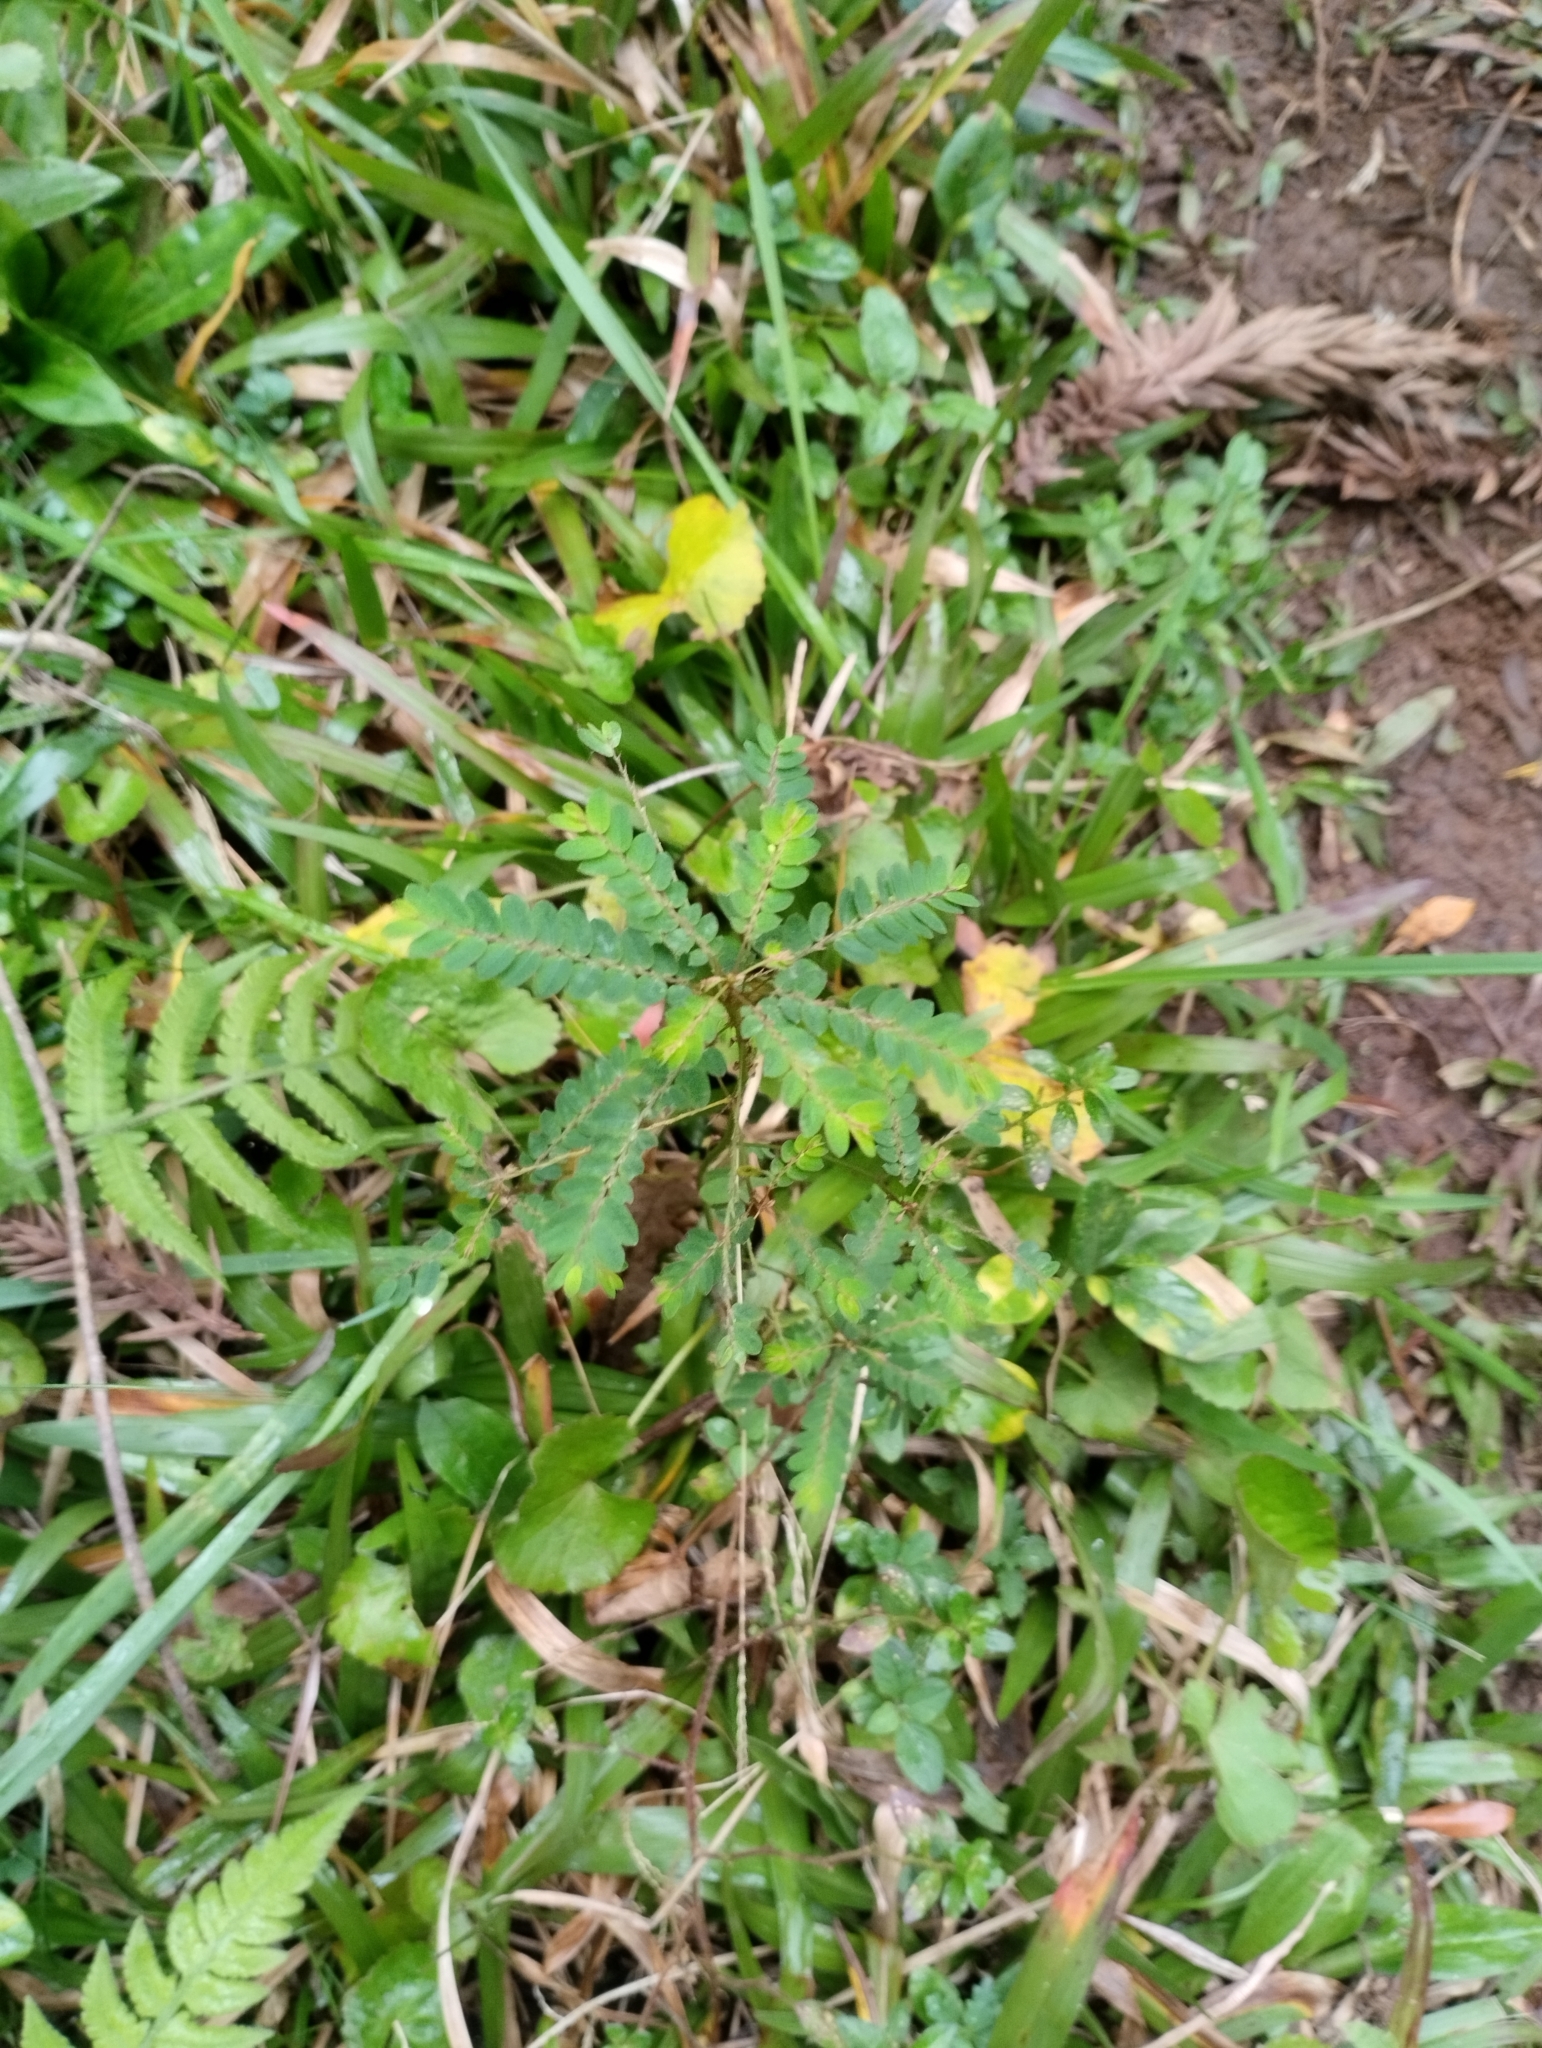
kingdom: Plantae
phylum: Tracheophyta
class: Magnoliopsida
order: Malpighiales
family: Phyllanthaceae
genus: Phyllanthus
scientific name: Phyllanthus niruri
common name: Niruri
